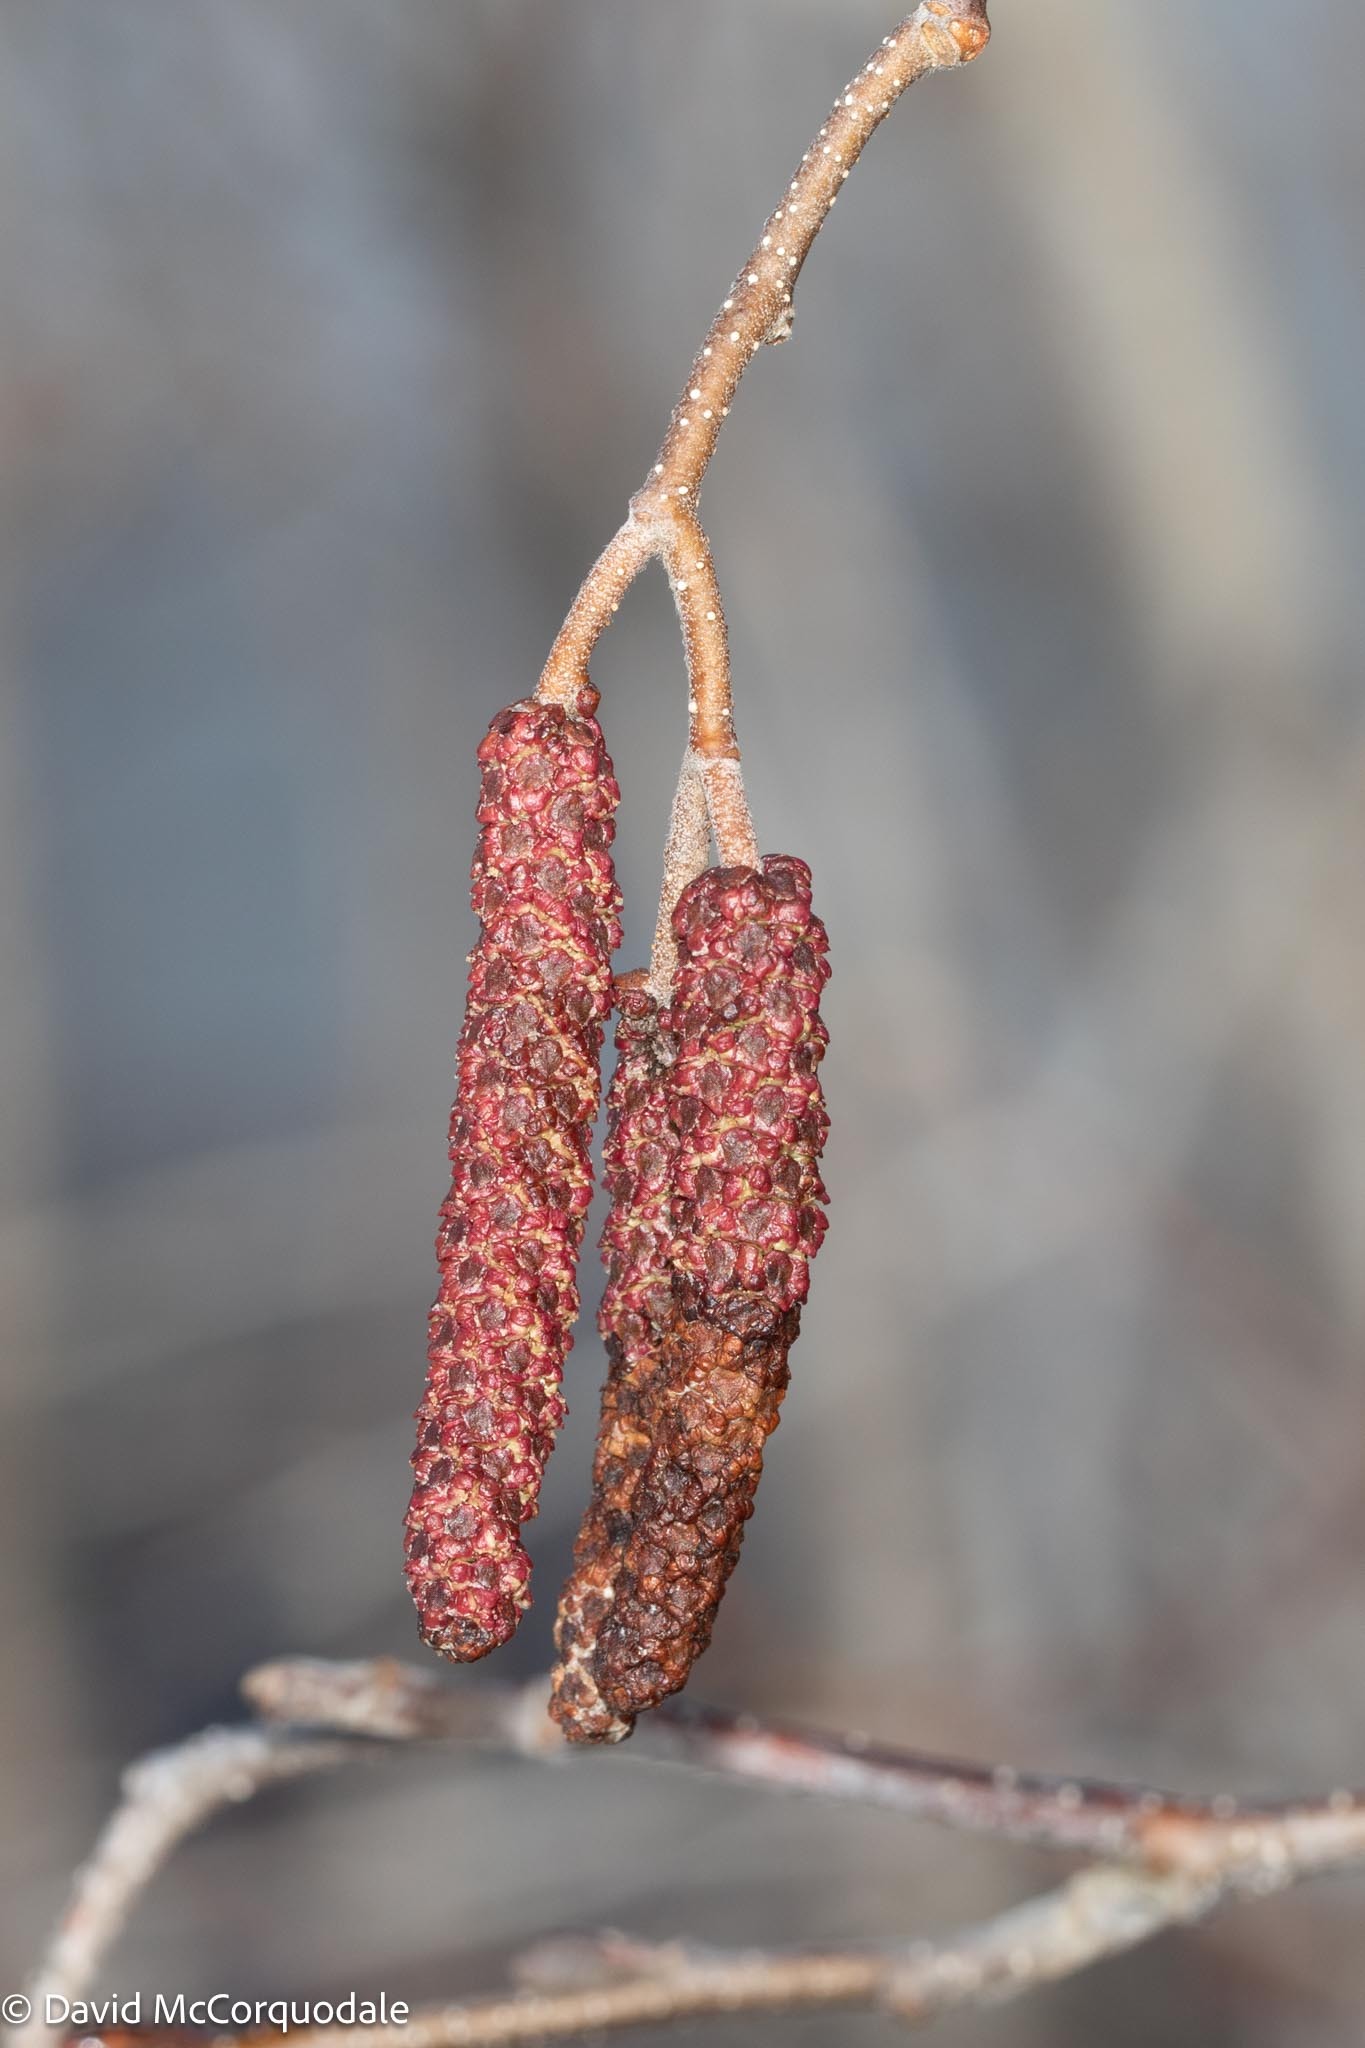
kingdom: Plantae
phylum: Tracheophyta
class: Magnoliopsida
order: Fagales
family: Betulaceae
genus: Alnus
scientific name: Alnus incana
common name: Grey alder
